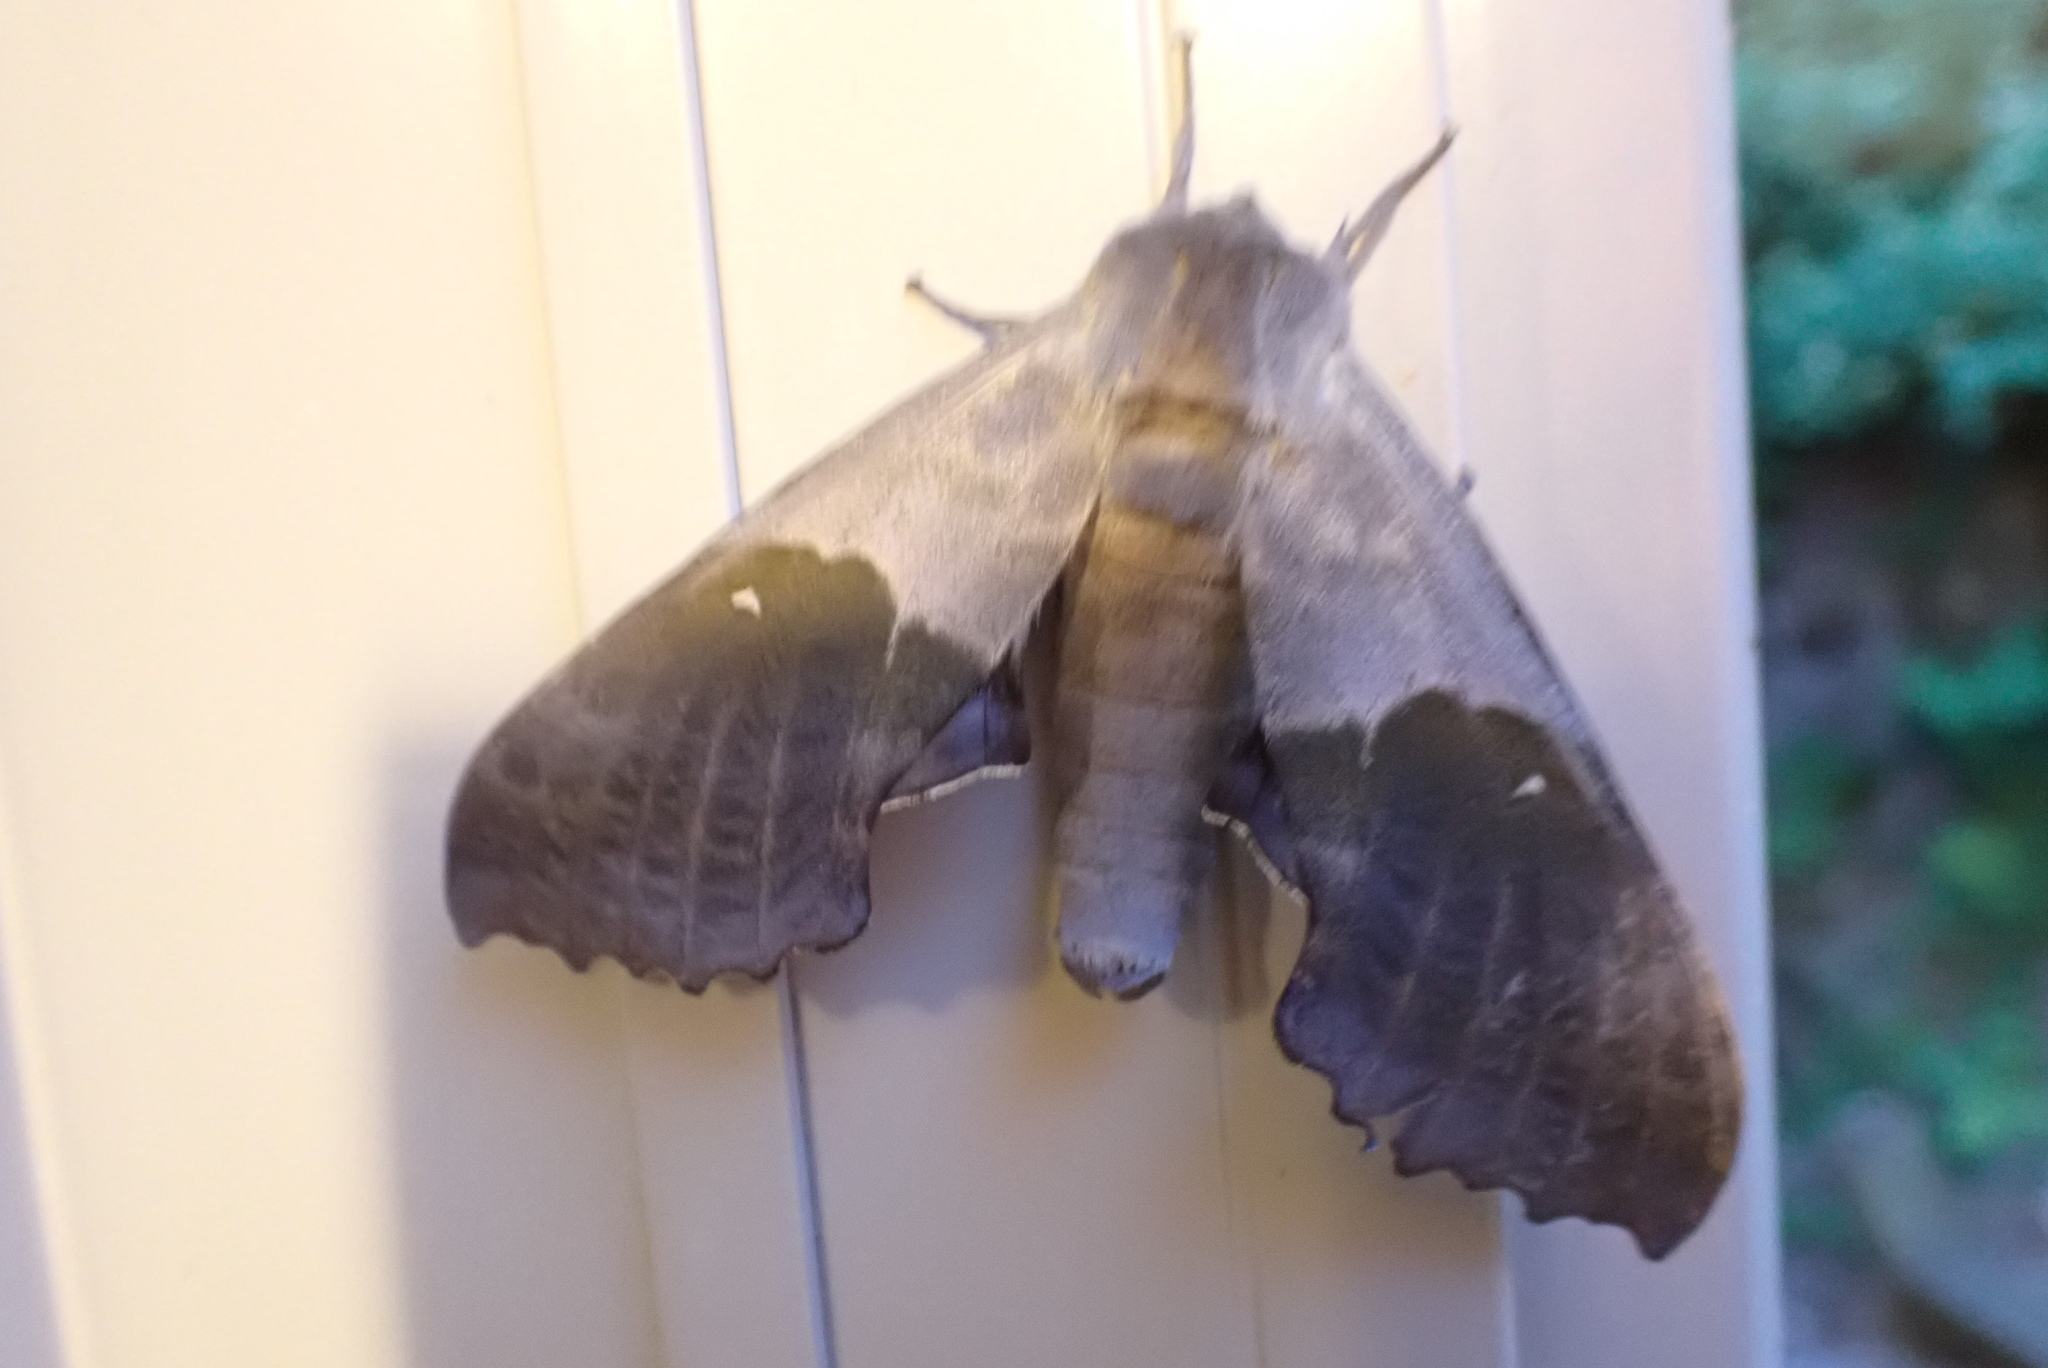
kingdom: Animalia
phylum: Arthropoda
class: Insecta
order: Lepidoptera
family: Sphingidae
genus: Pachysphinx
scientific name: Pachysphinx modesta
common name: Big poplar sphinx
